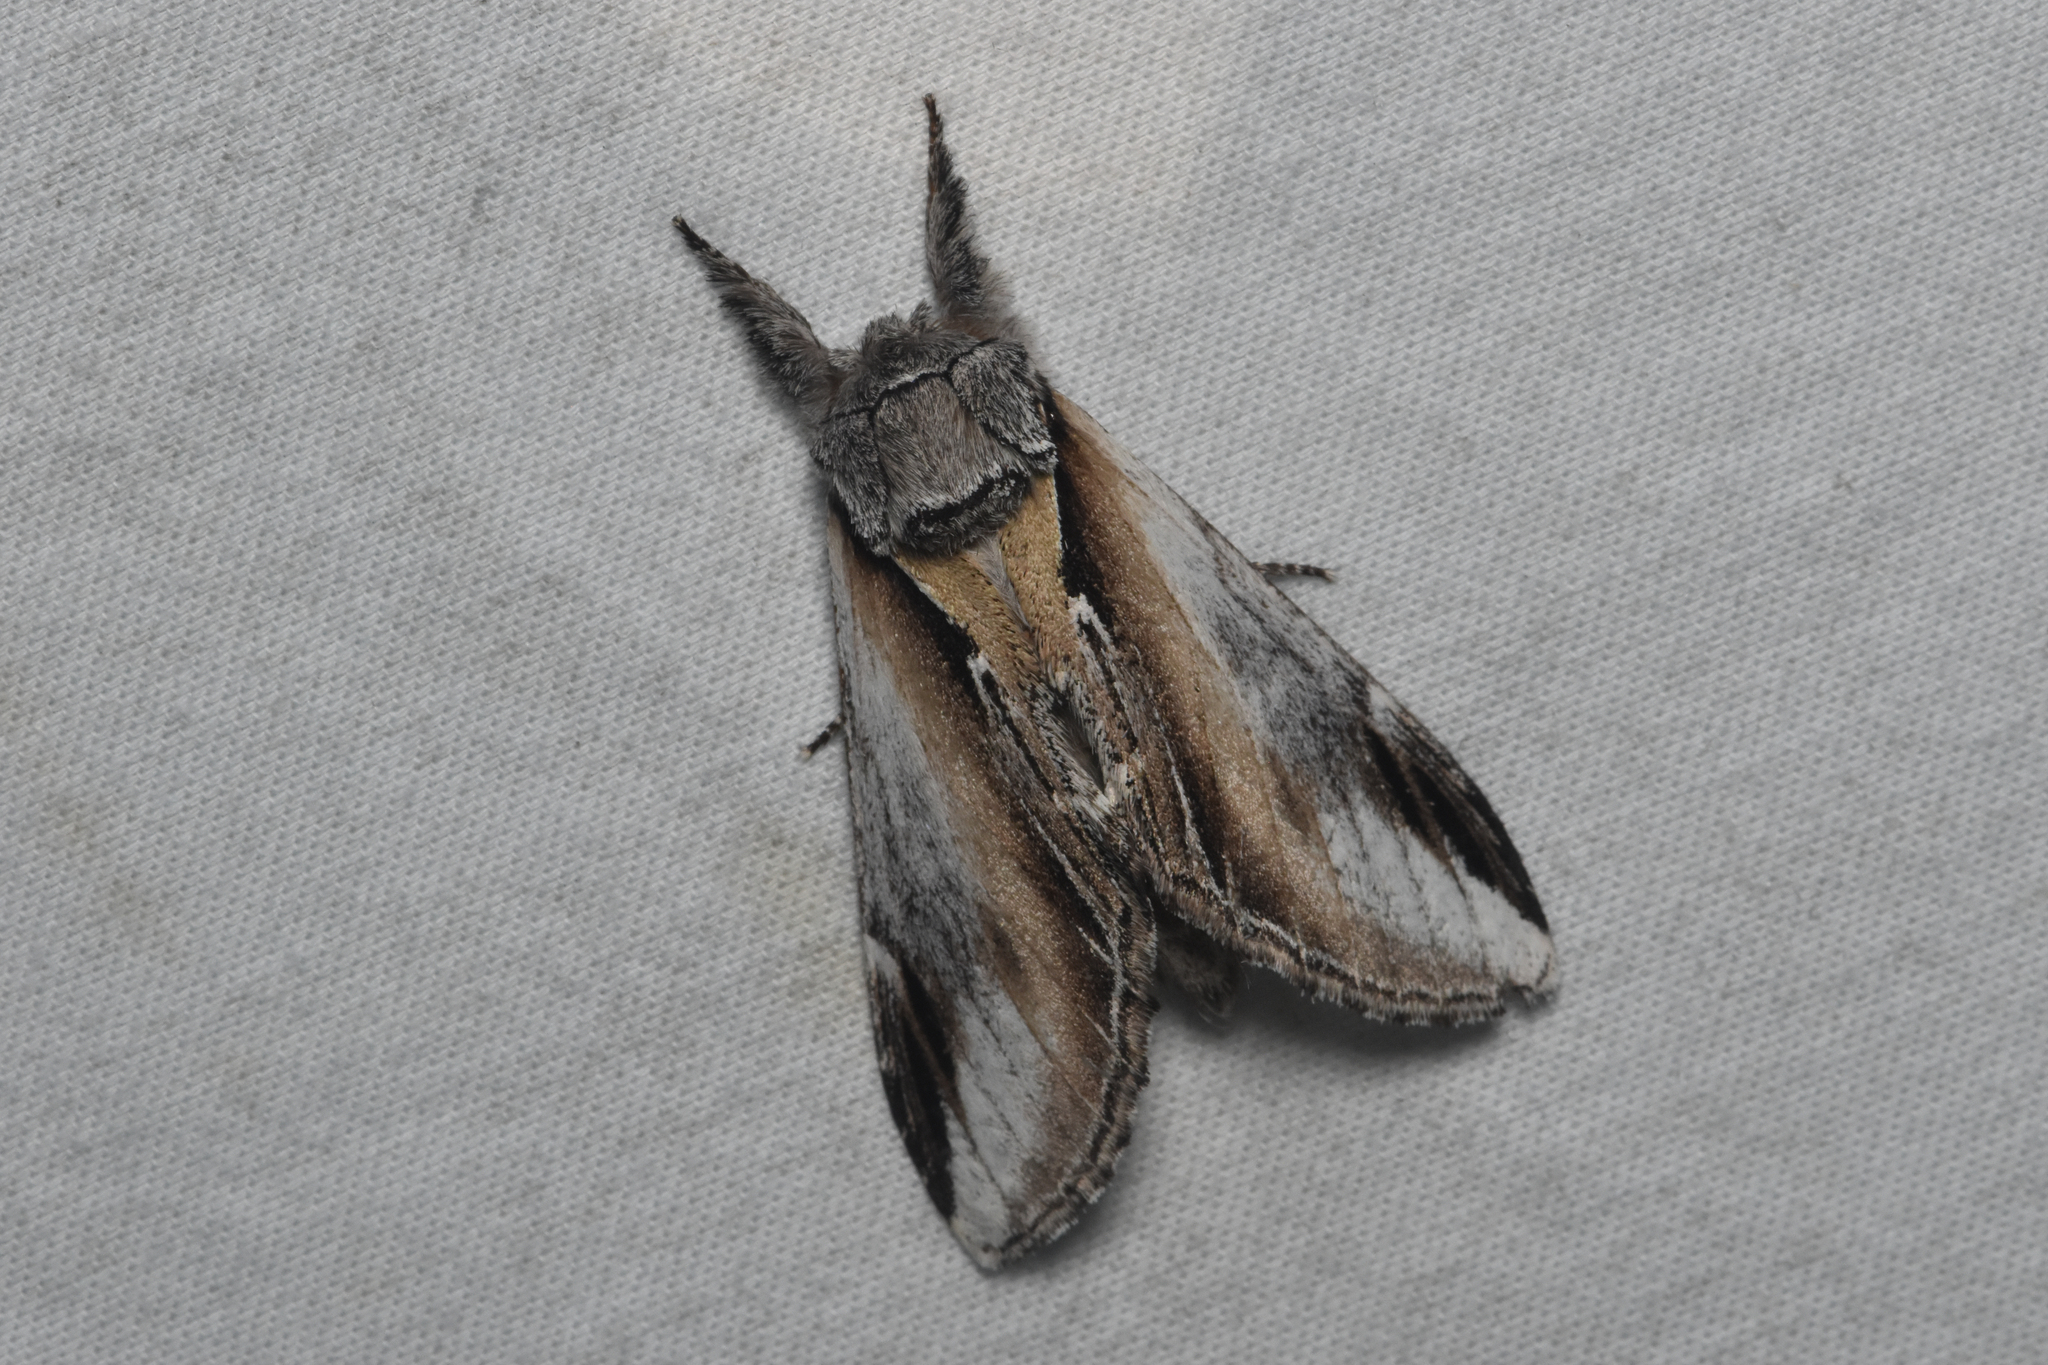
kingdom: Animalia
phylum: Arthropoda
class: Insecta
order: Lepidoptera
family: Notodontidae
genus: Pheosia
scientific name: Pheosia rimosa
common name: Black-rimmed prominent
